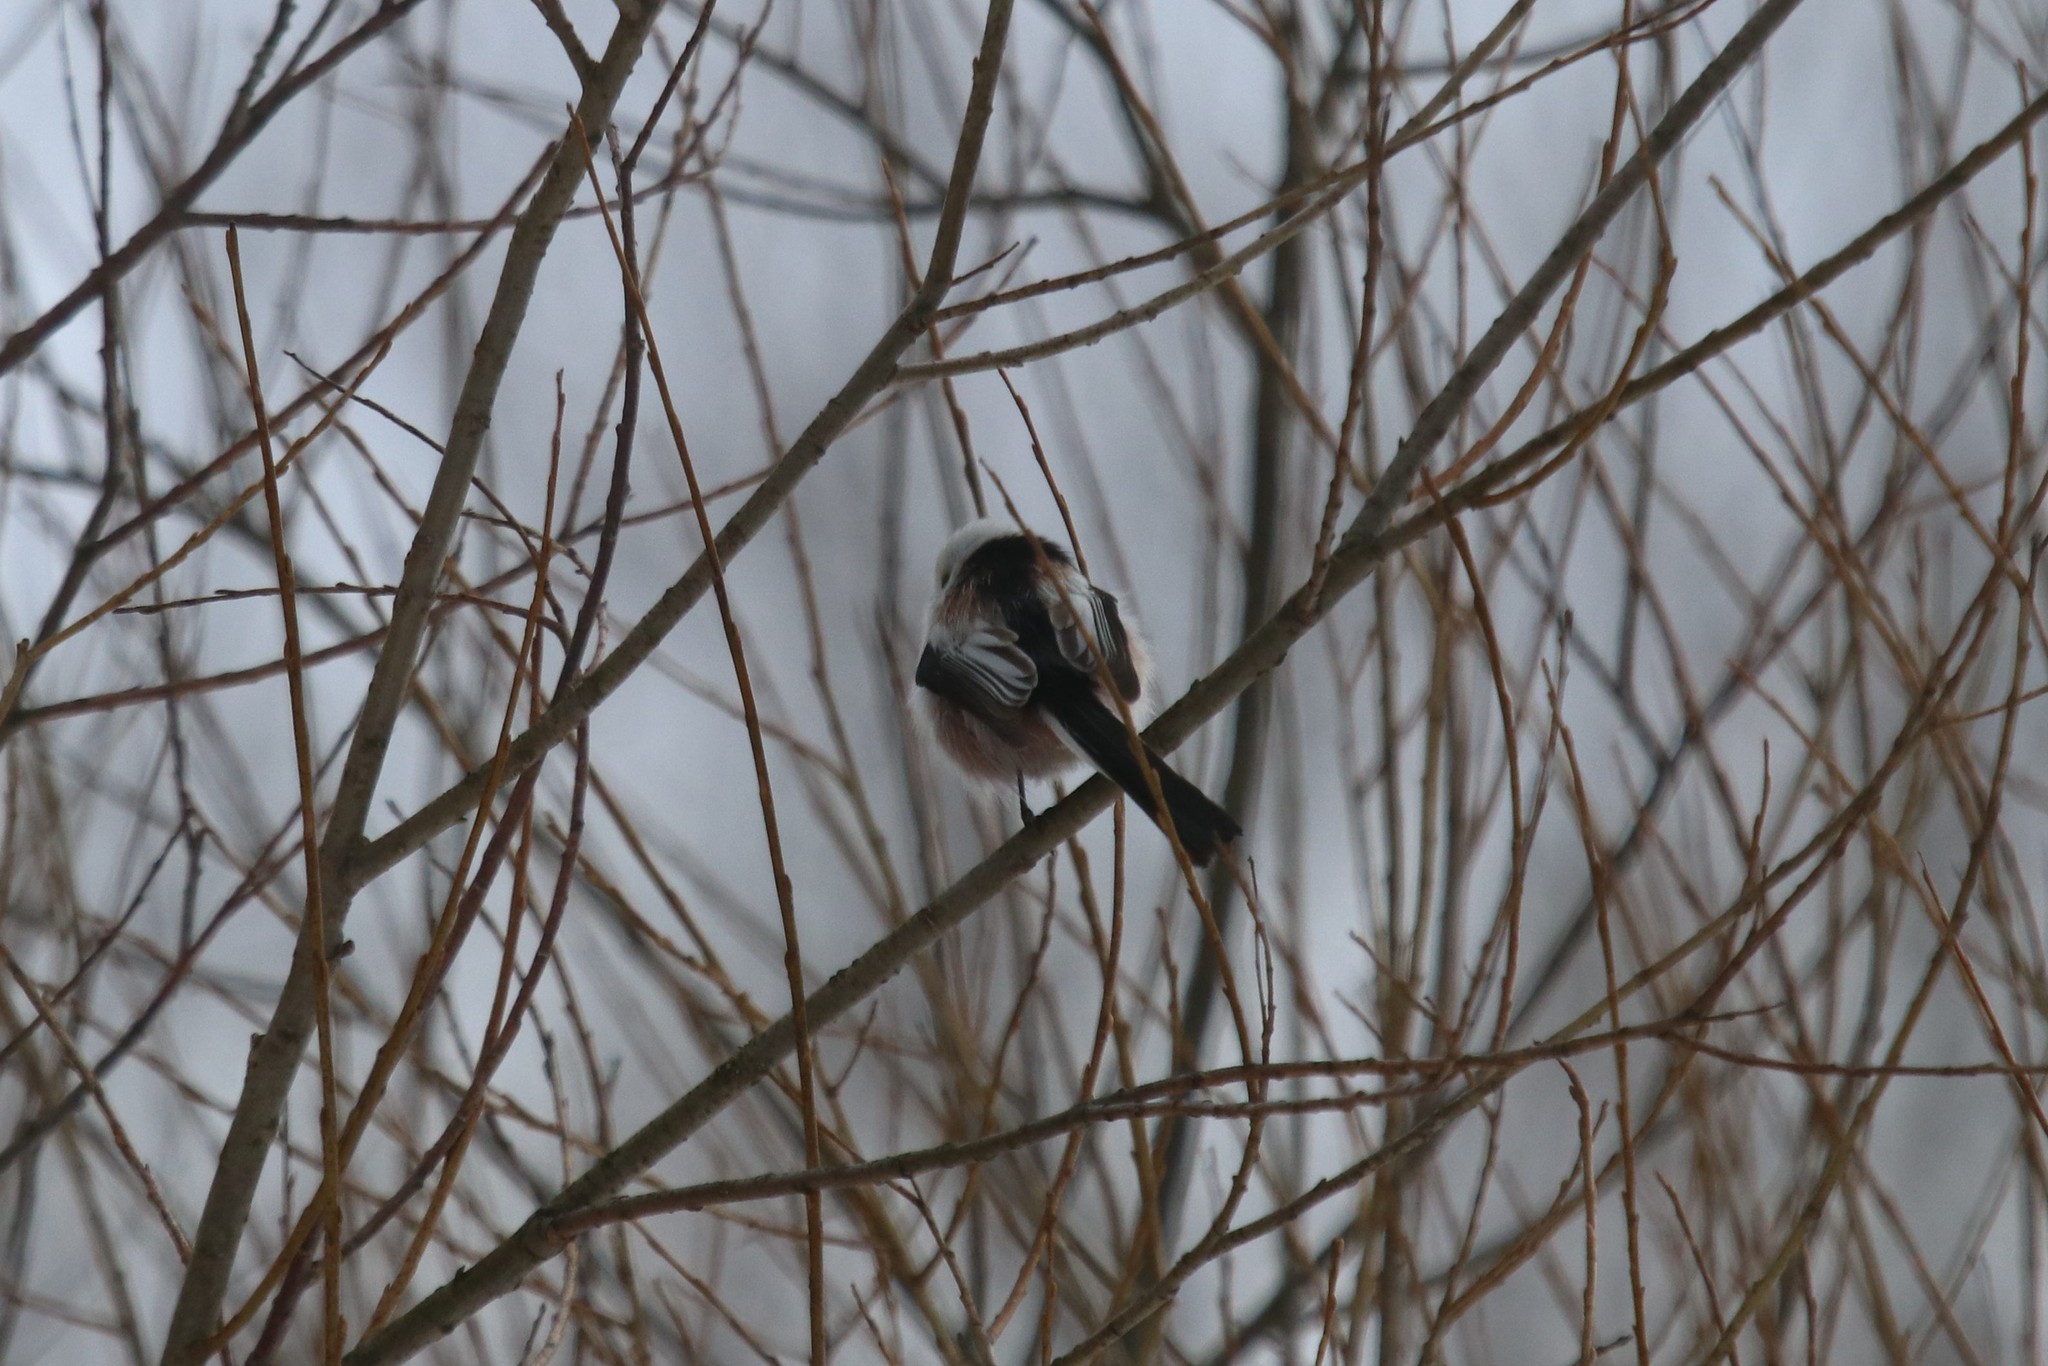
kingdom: Animalia
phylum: Chordata
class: Aves
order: Passeriformes
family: Aegithalidae
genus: Aegithalos
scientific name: Aegithalos caudatus
